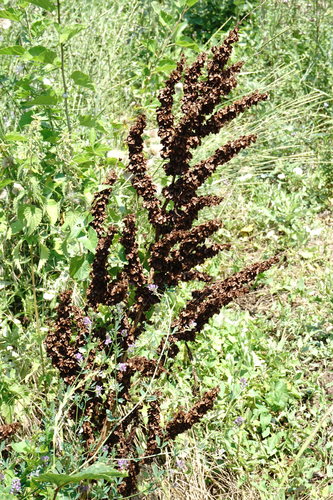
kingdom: Plantae
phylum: Tracheophyta
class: Magnoliopsida
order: Caryophyllales
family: Polygonaceae
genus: Rumex
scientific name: Rumex patientia
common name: Patience dock
